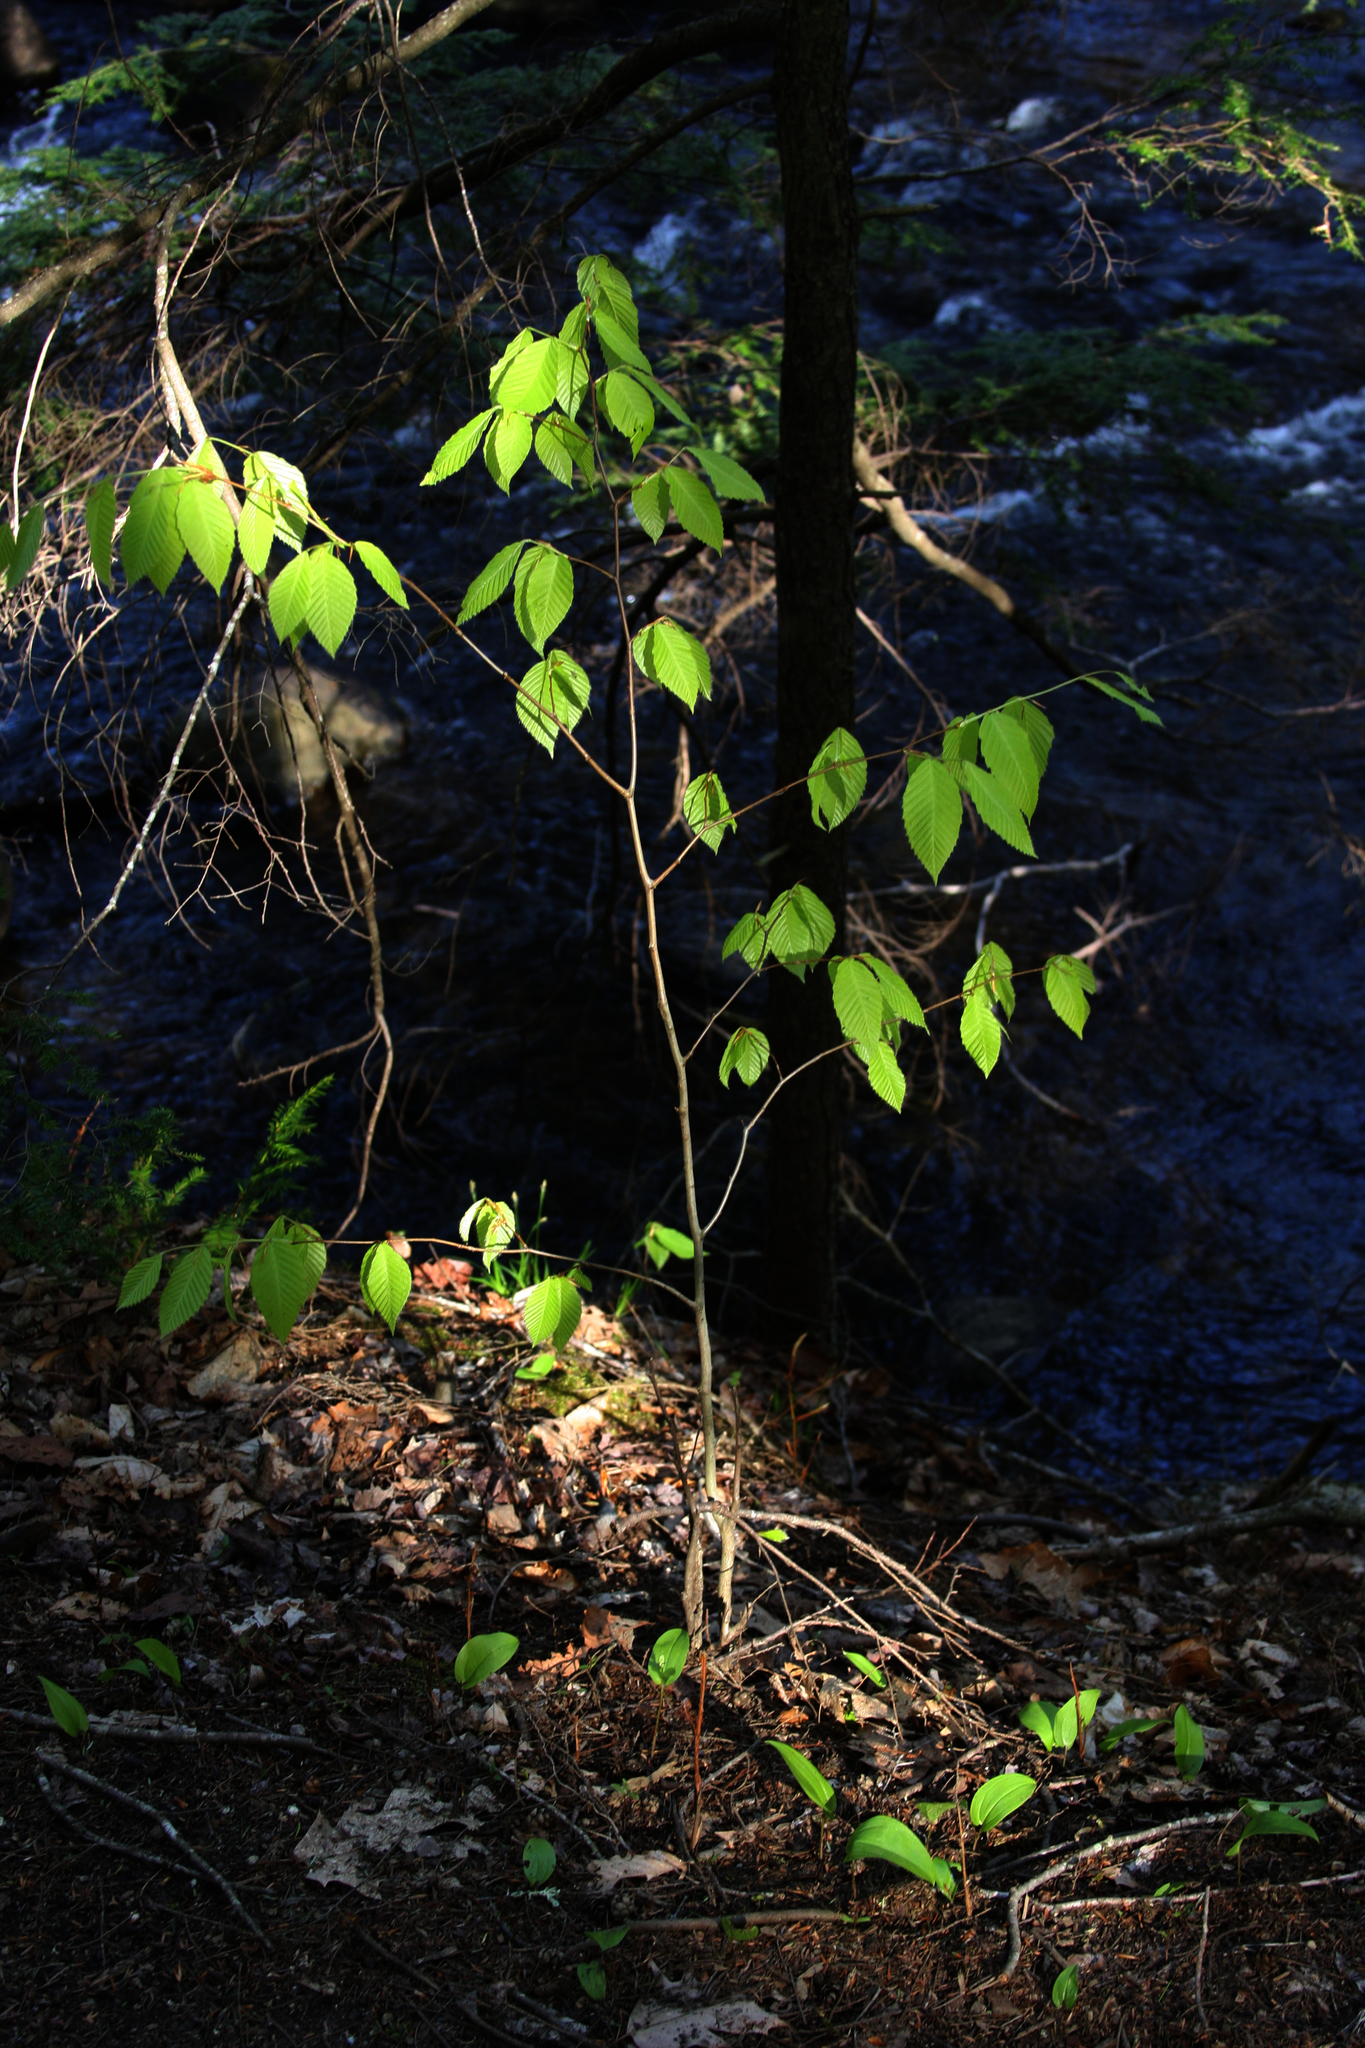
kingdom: Plantae
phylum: Tracheophyta
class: Magnoliopsida
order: Fagales
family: Fagaceae
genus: Fagus
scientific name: Fagus grandifolia
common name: American beech
